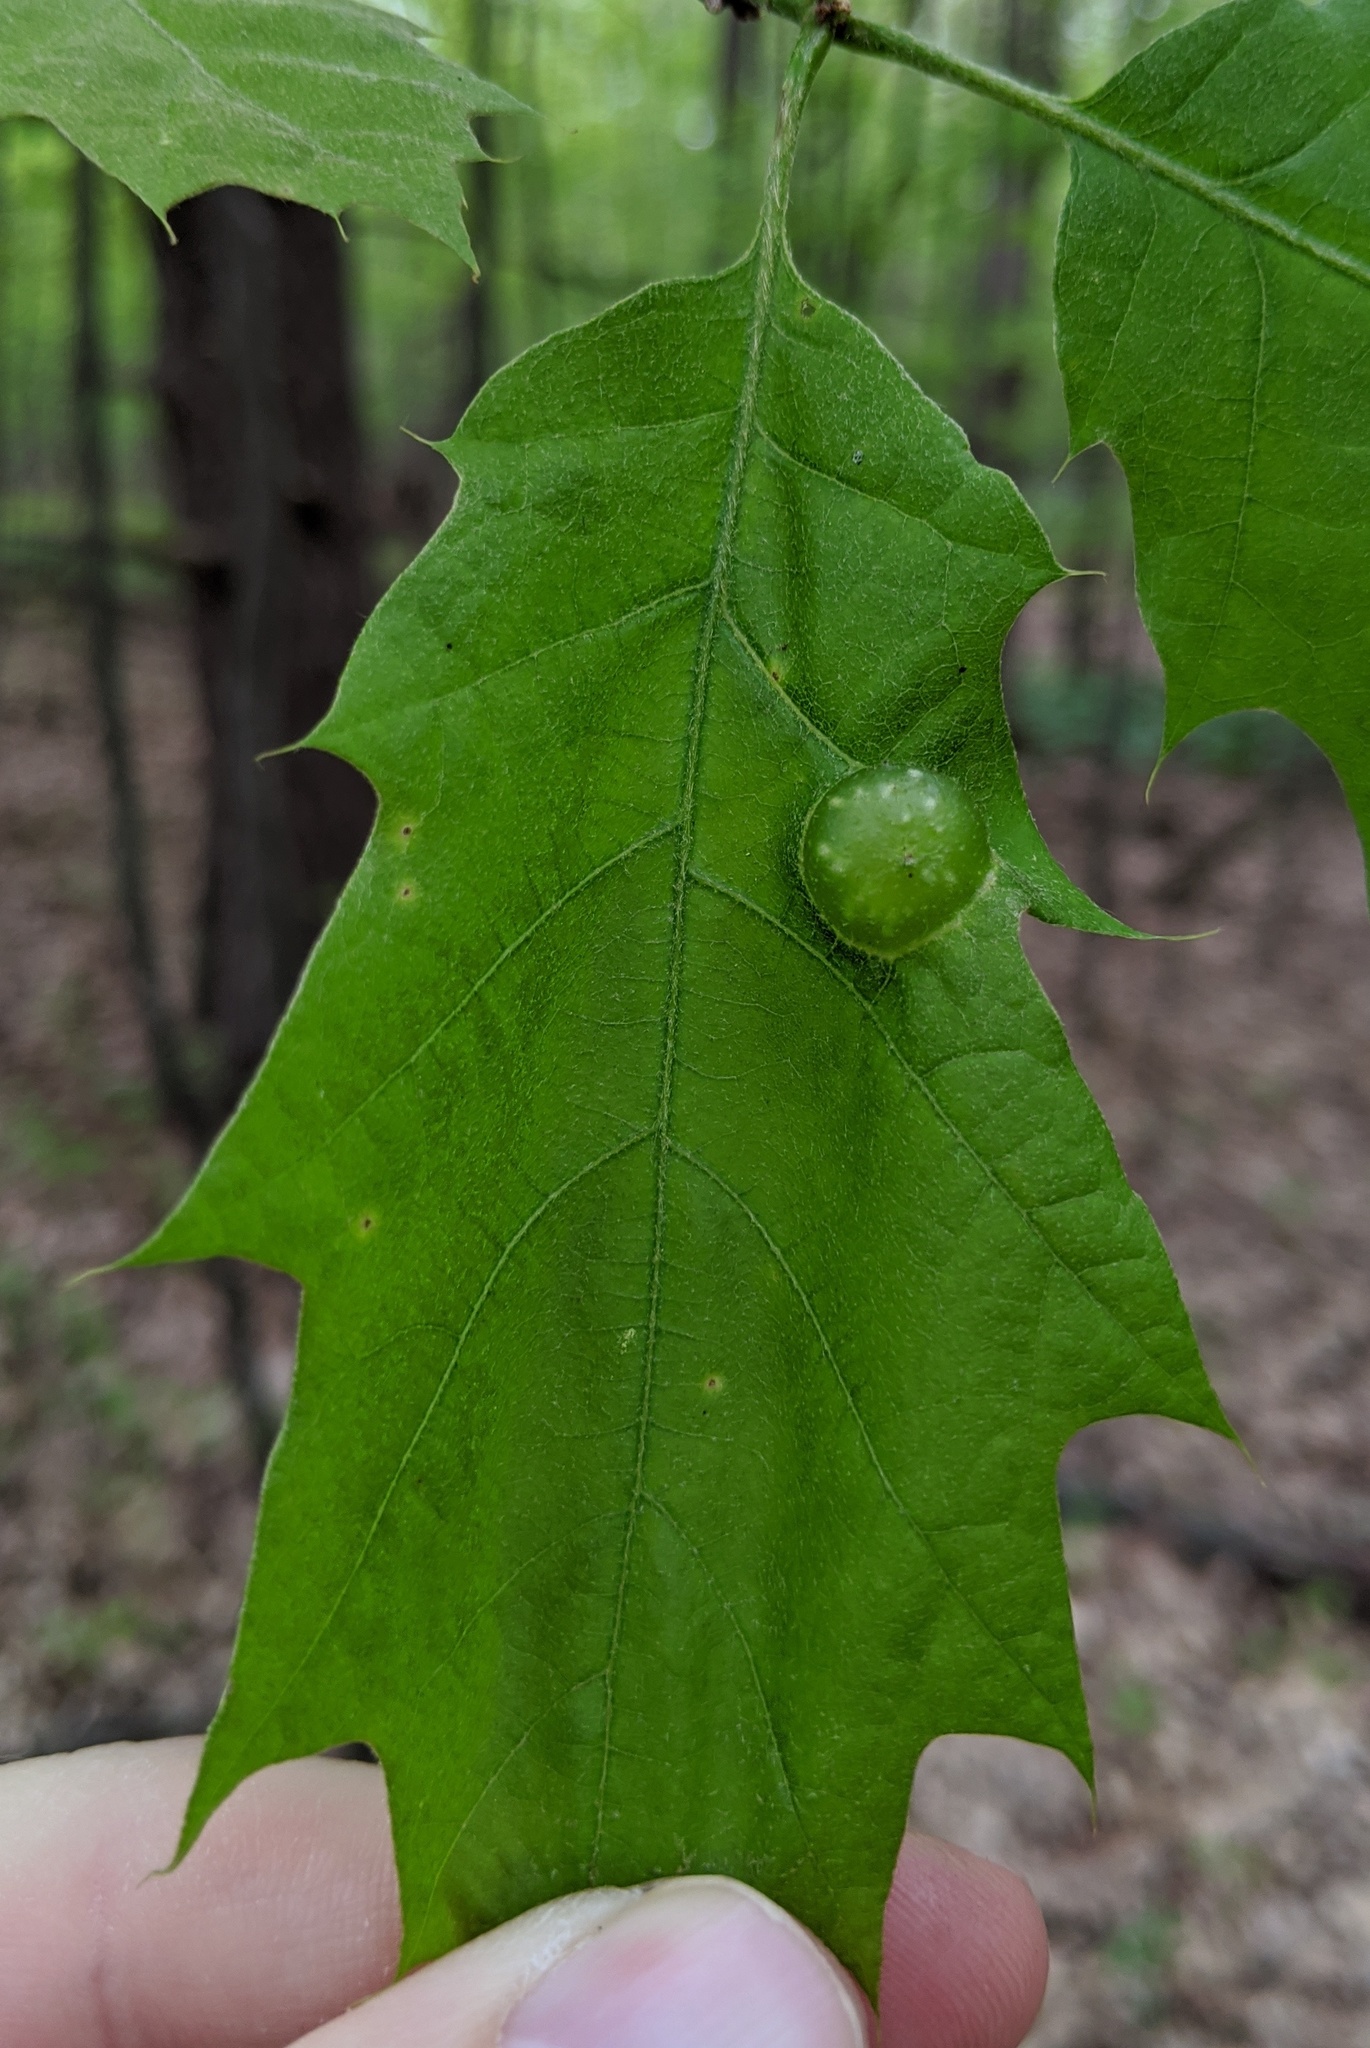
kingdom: Animalia
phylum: Arthropoda
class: Insecta
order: Hymenoptera
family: Cynipidae
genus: Dryocosmus
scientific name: Dryocosmus quercuspalustris
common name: Succulent oak gall wasp
